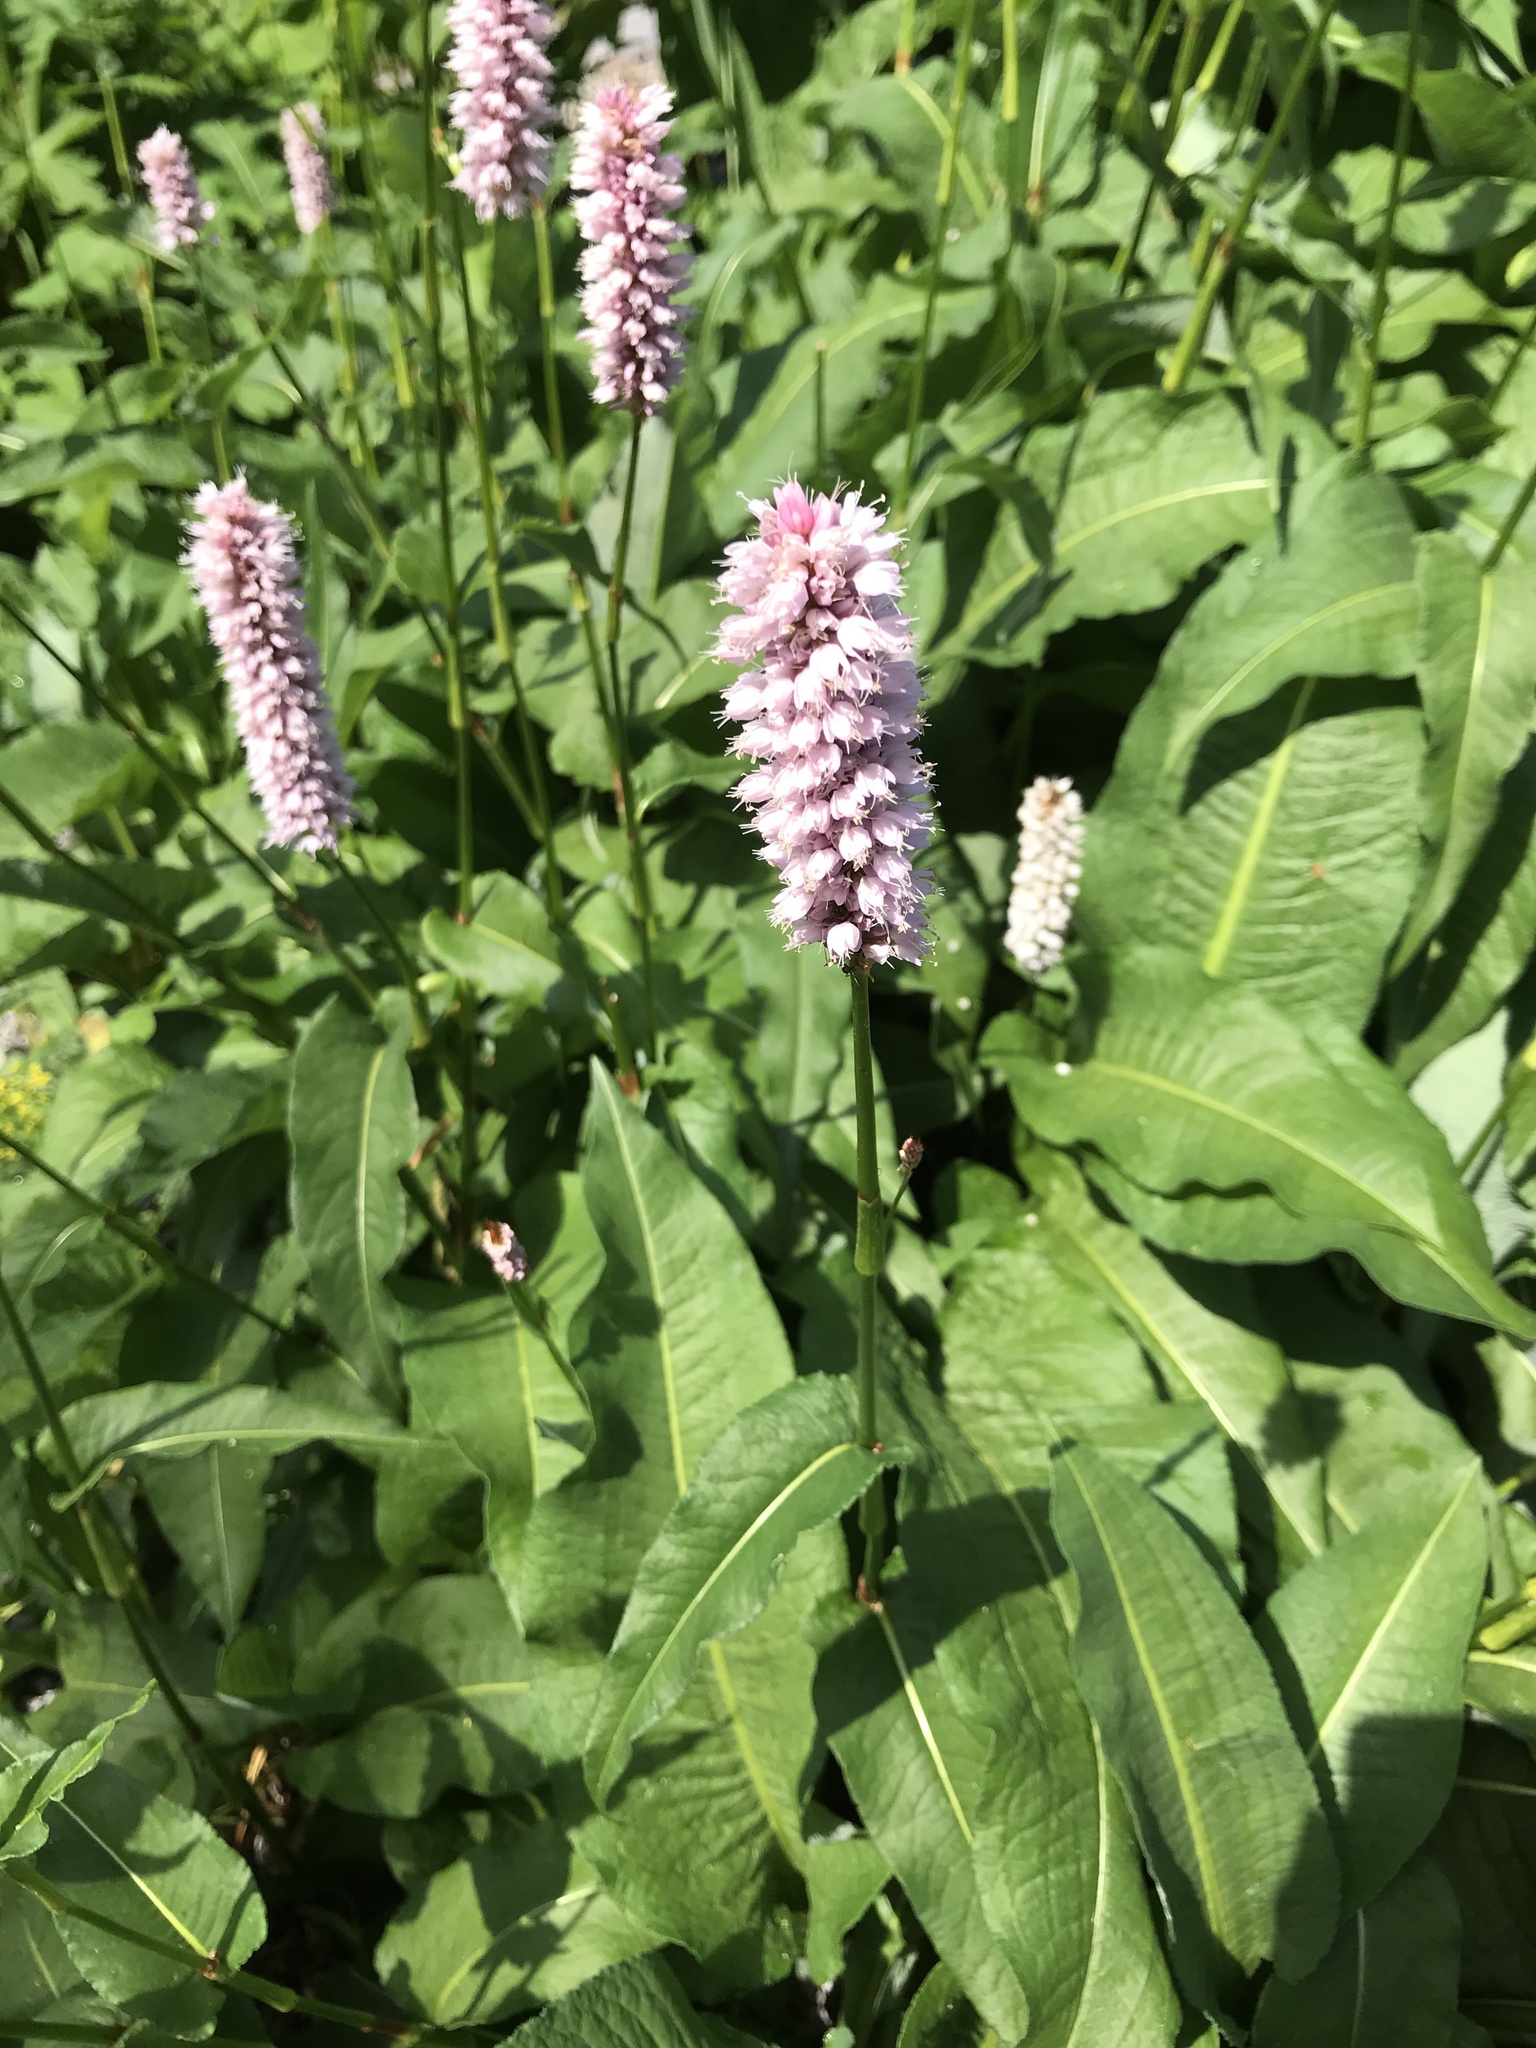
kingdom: Plantae
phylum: Tracheophyta
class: Magnoliopsida
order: Caryophyllales
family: Polygonaceae
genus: Bistorta
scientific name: Bistorta officinalis
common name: Common bistort
